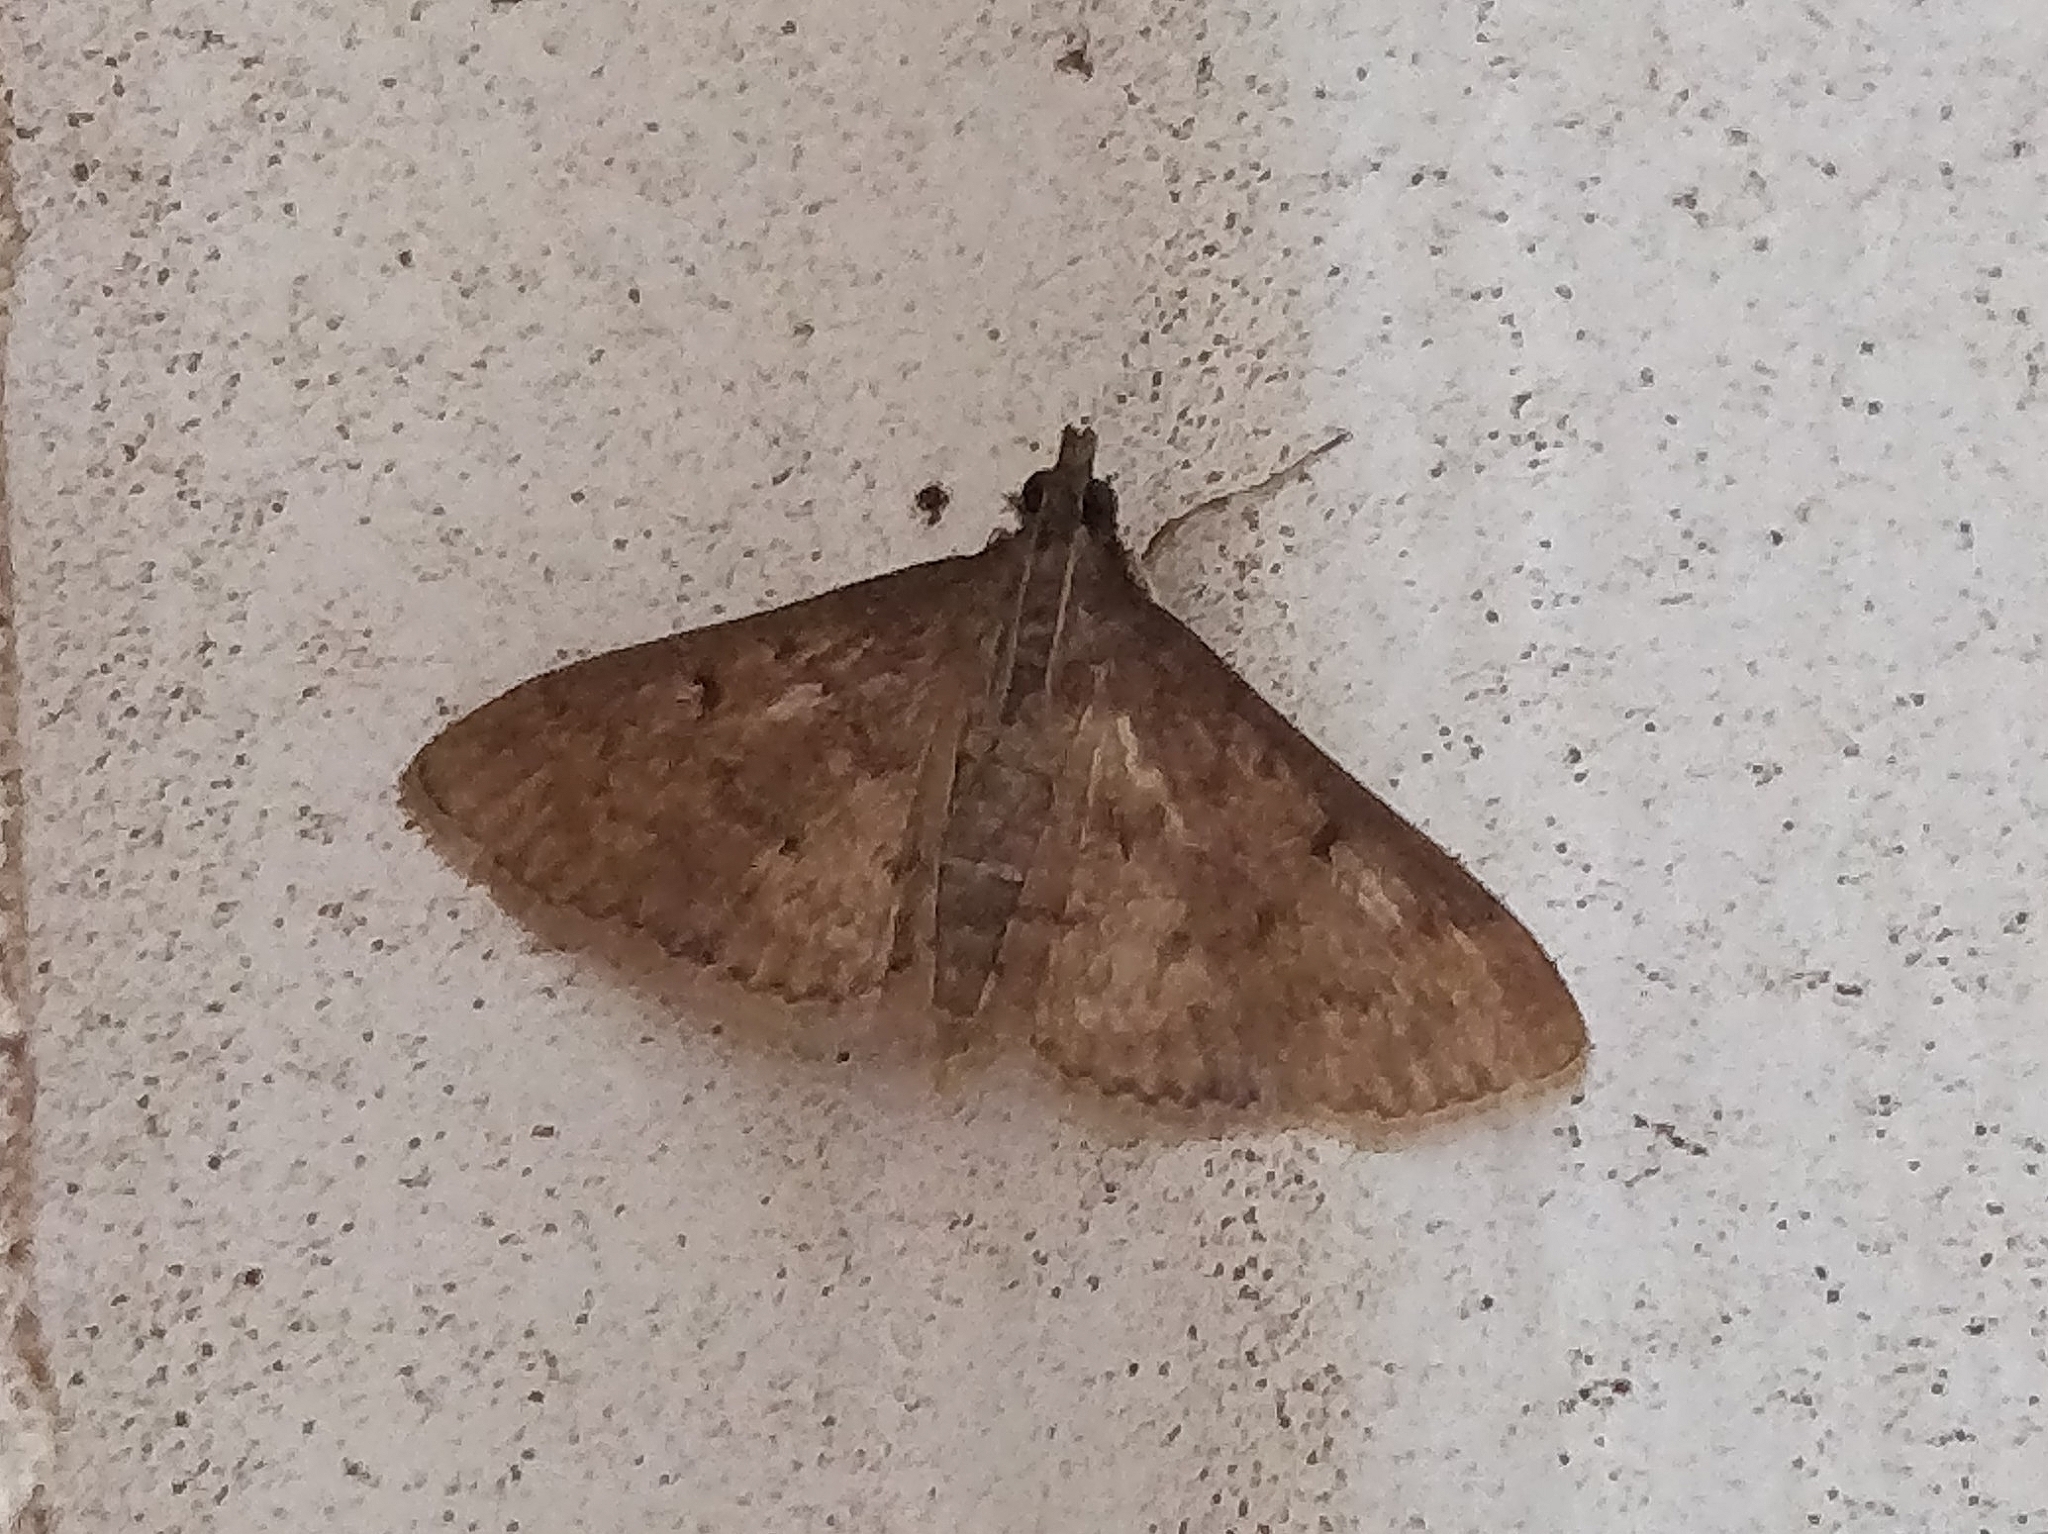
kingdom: Animalia
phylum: Arthropoda
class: Insecta
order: Lepidoptera
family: Crambidae
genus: Herpetogramma
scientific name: Herpetogramma licarsisalis
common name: Grass webworm
